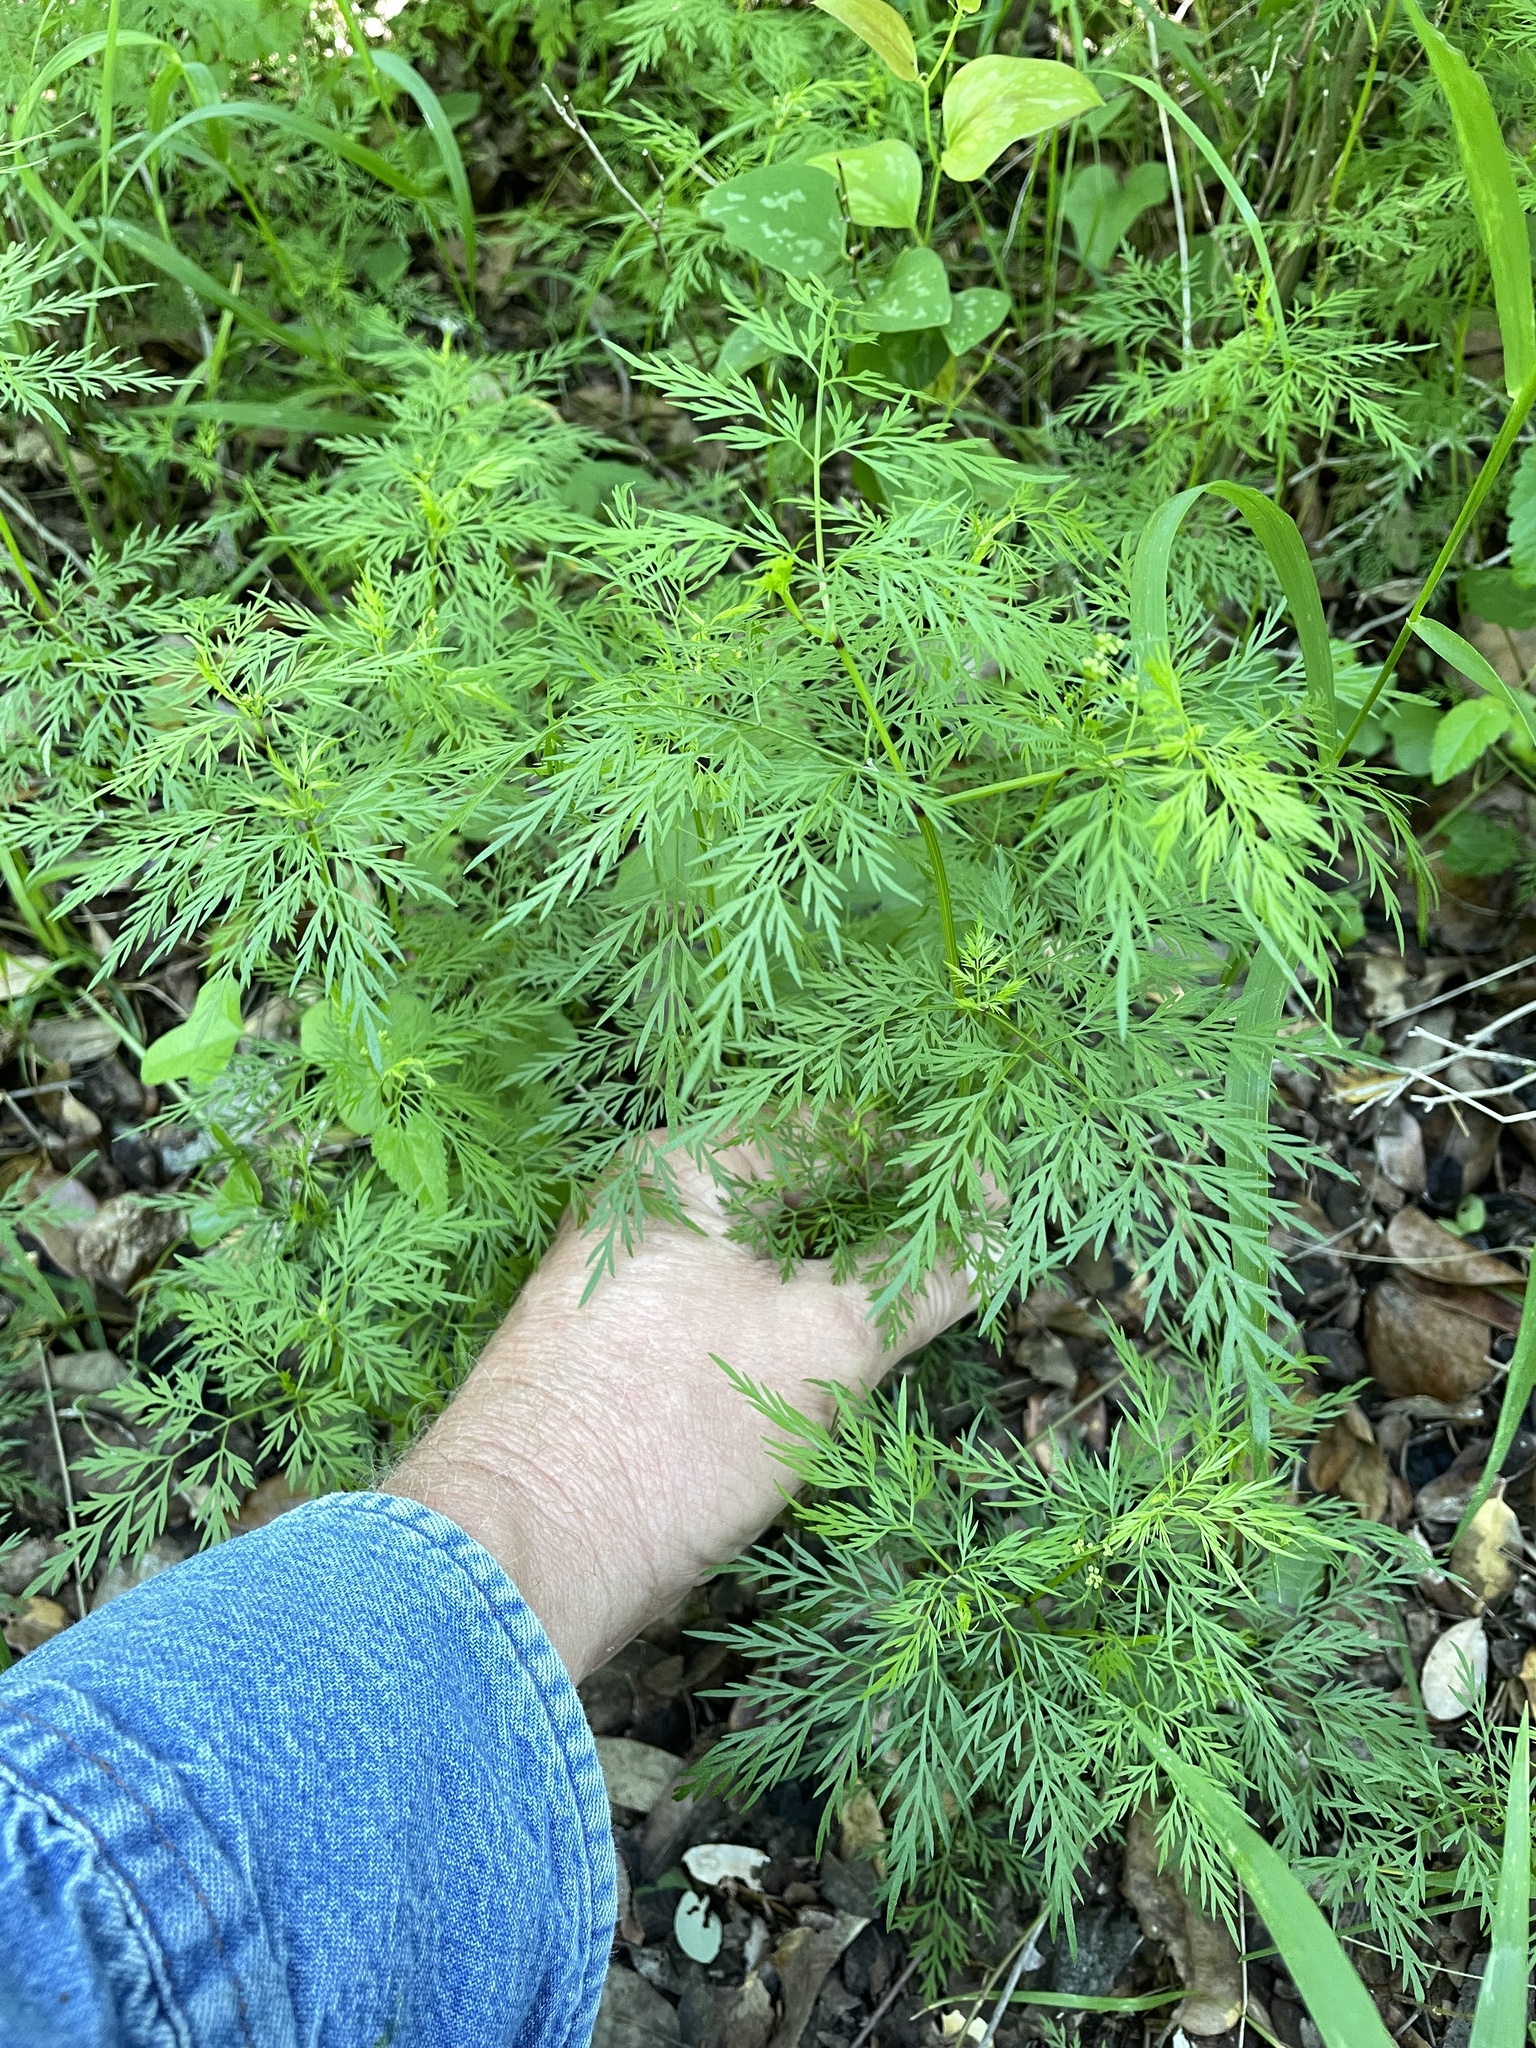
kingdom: Plantae
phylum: Tracheophyta
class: Magnoliopsida
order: Apiales
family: Apiaceae
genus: Trepocarpus
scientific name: Trepocarpus aethusae
